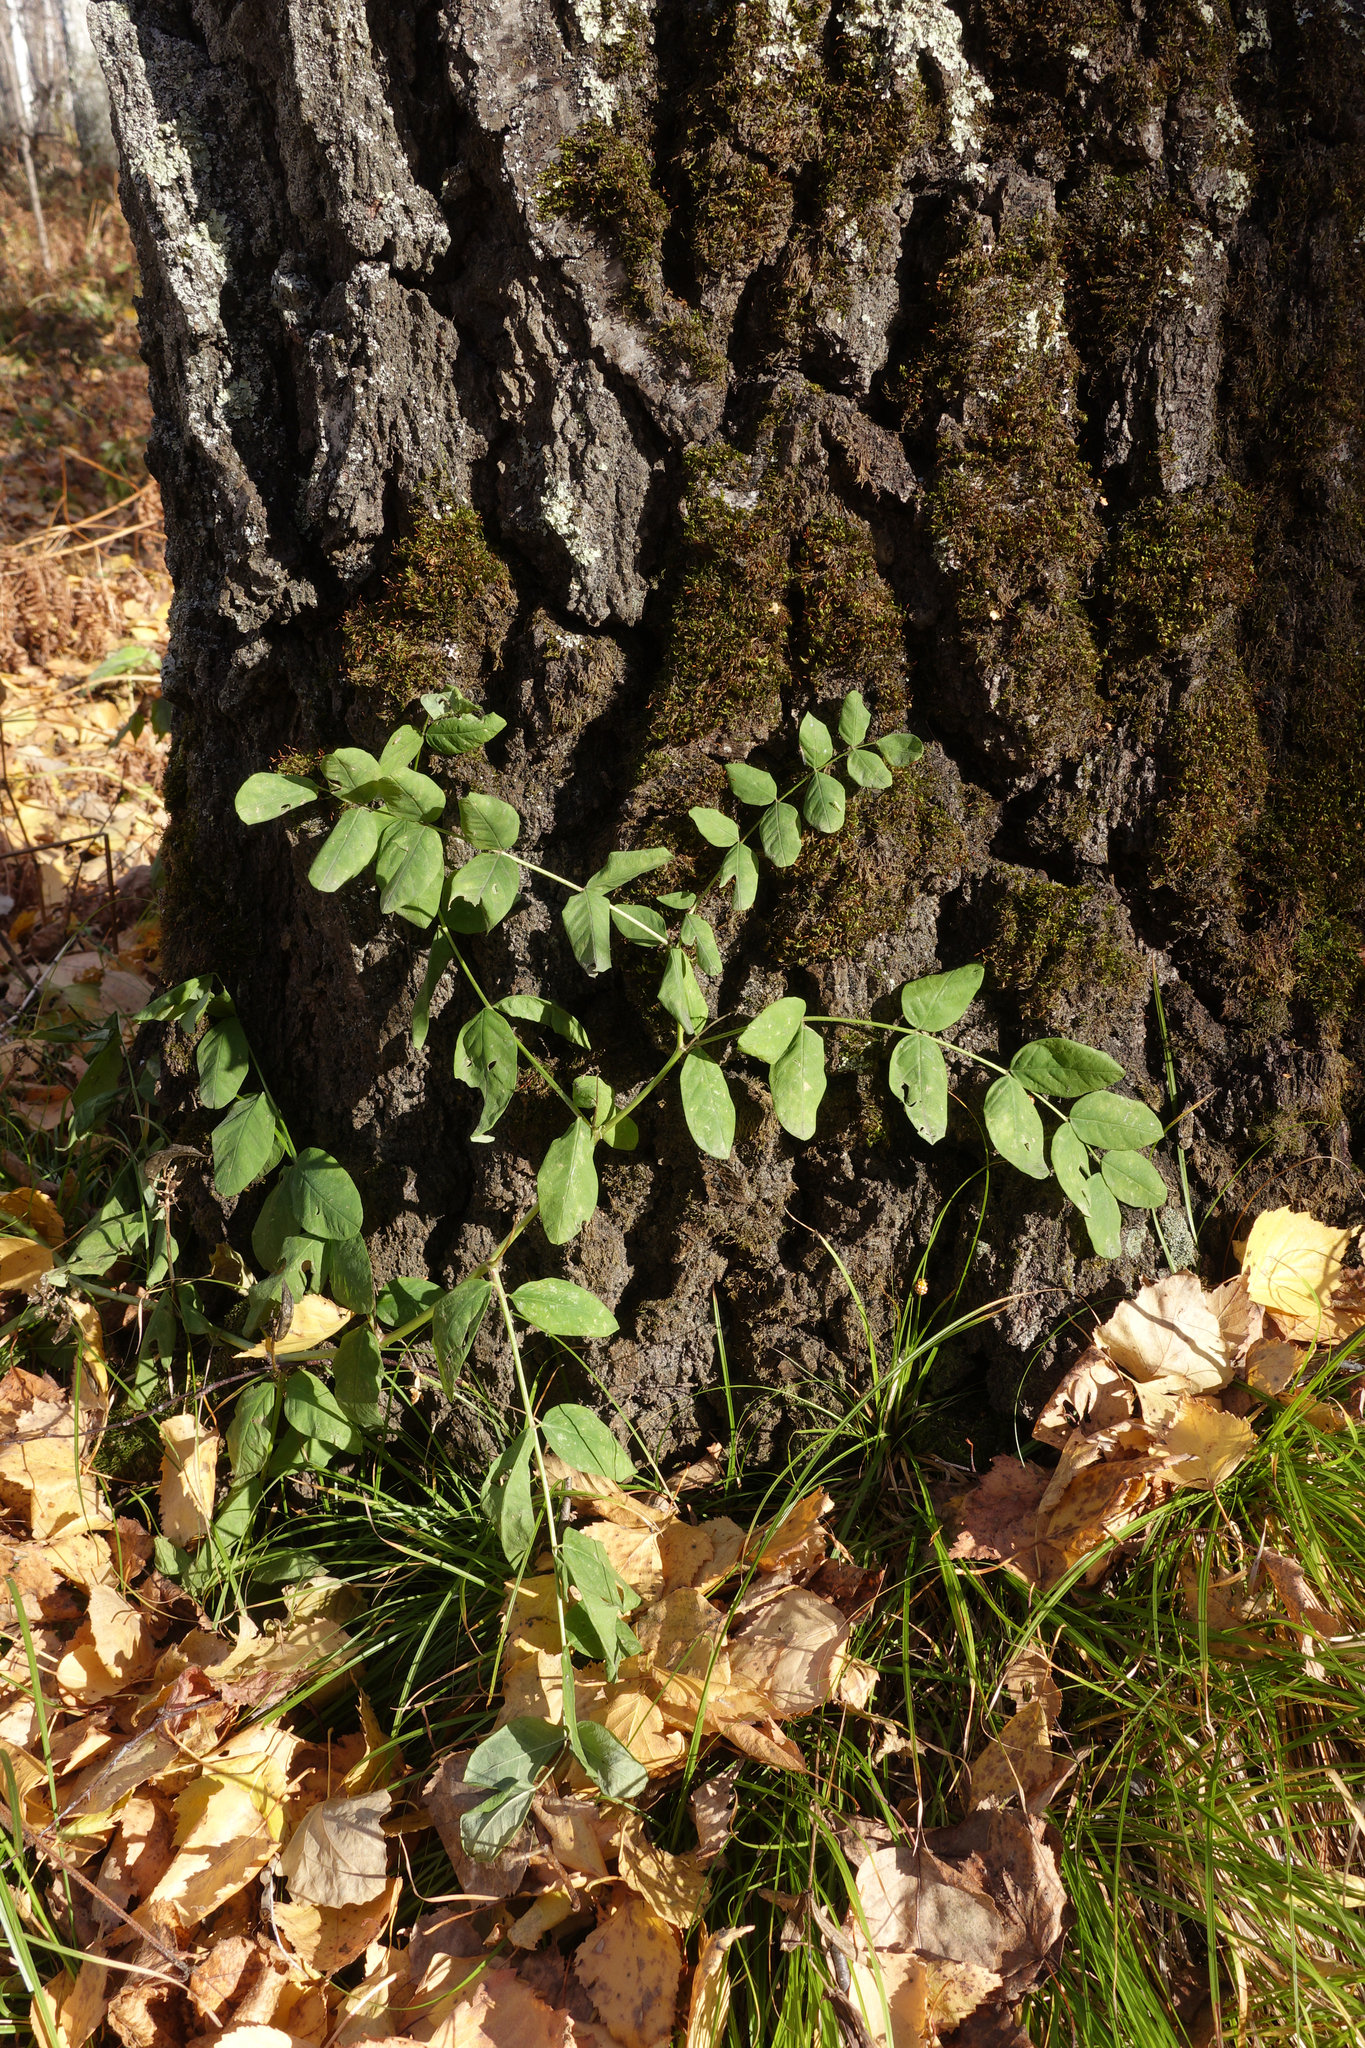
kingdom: Plantae
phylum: Tracheophyta
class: Magnoliopsida
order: Fabales
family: Fabaceae
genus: Astragalus
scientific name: Astragalus glycyphyllos
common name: Wild liquorice
